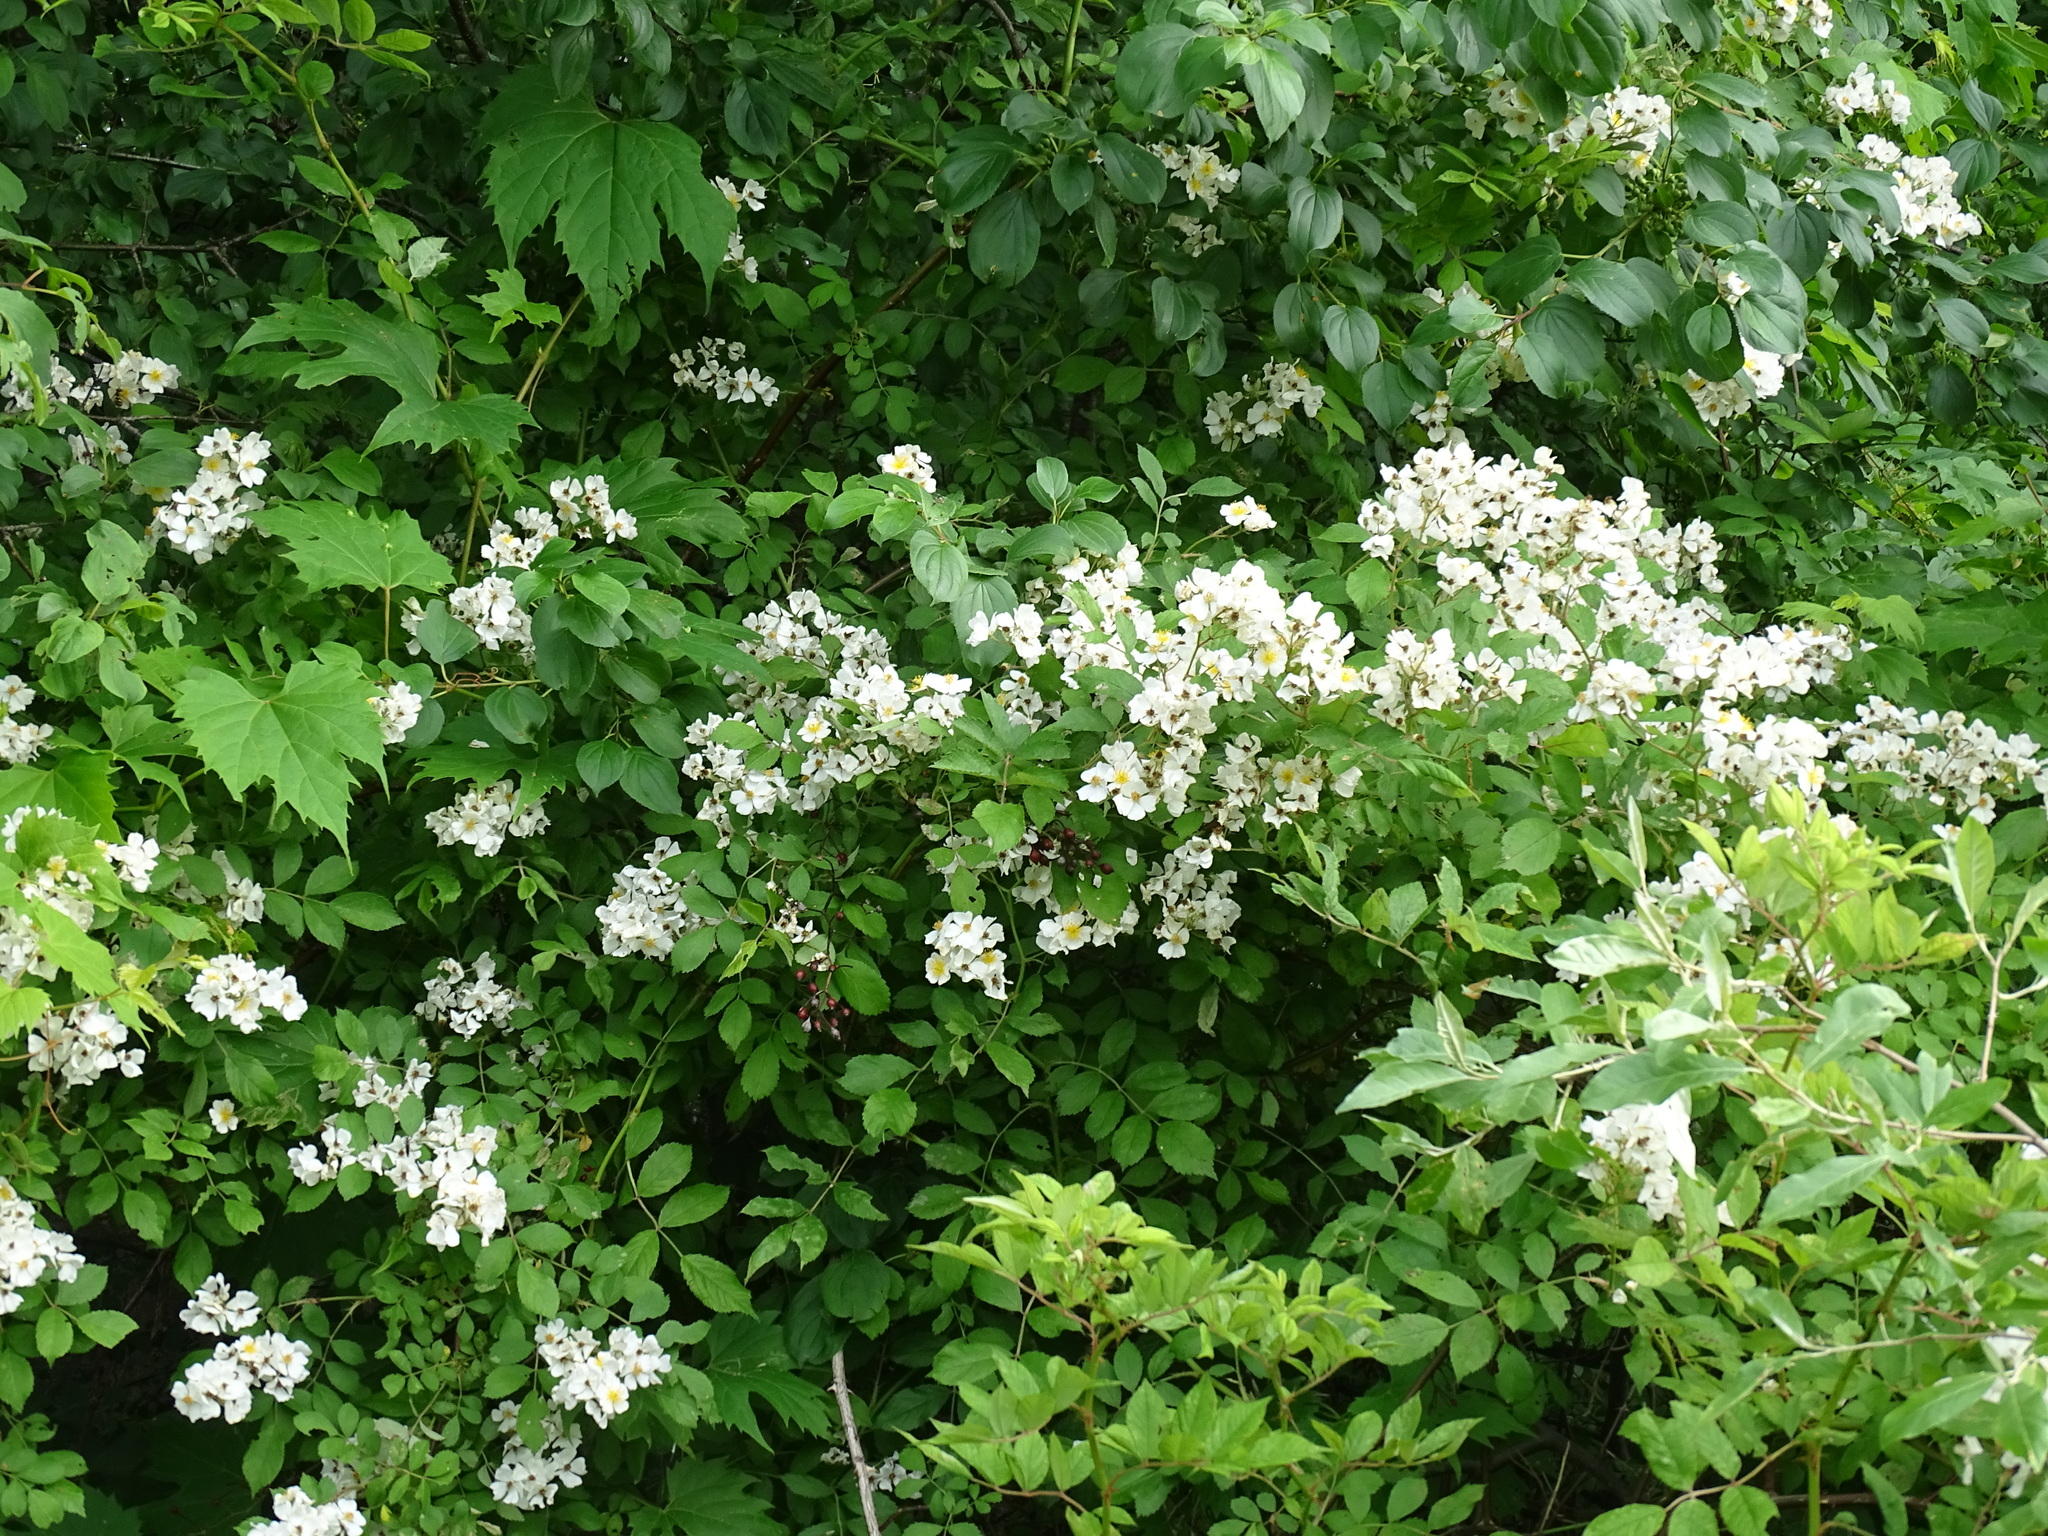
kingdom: Plantae
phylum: Tracheophyta
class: Magnoliopsida
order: Rosales
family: Rosaceae
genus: Rosa
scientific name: Rosa multiflora
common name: Multiflora rose
